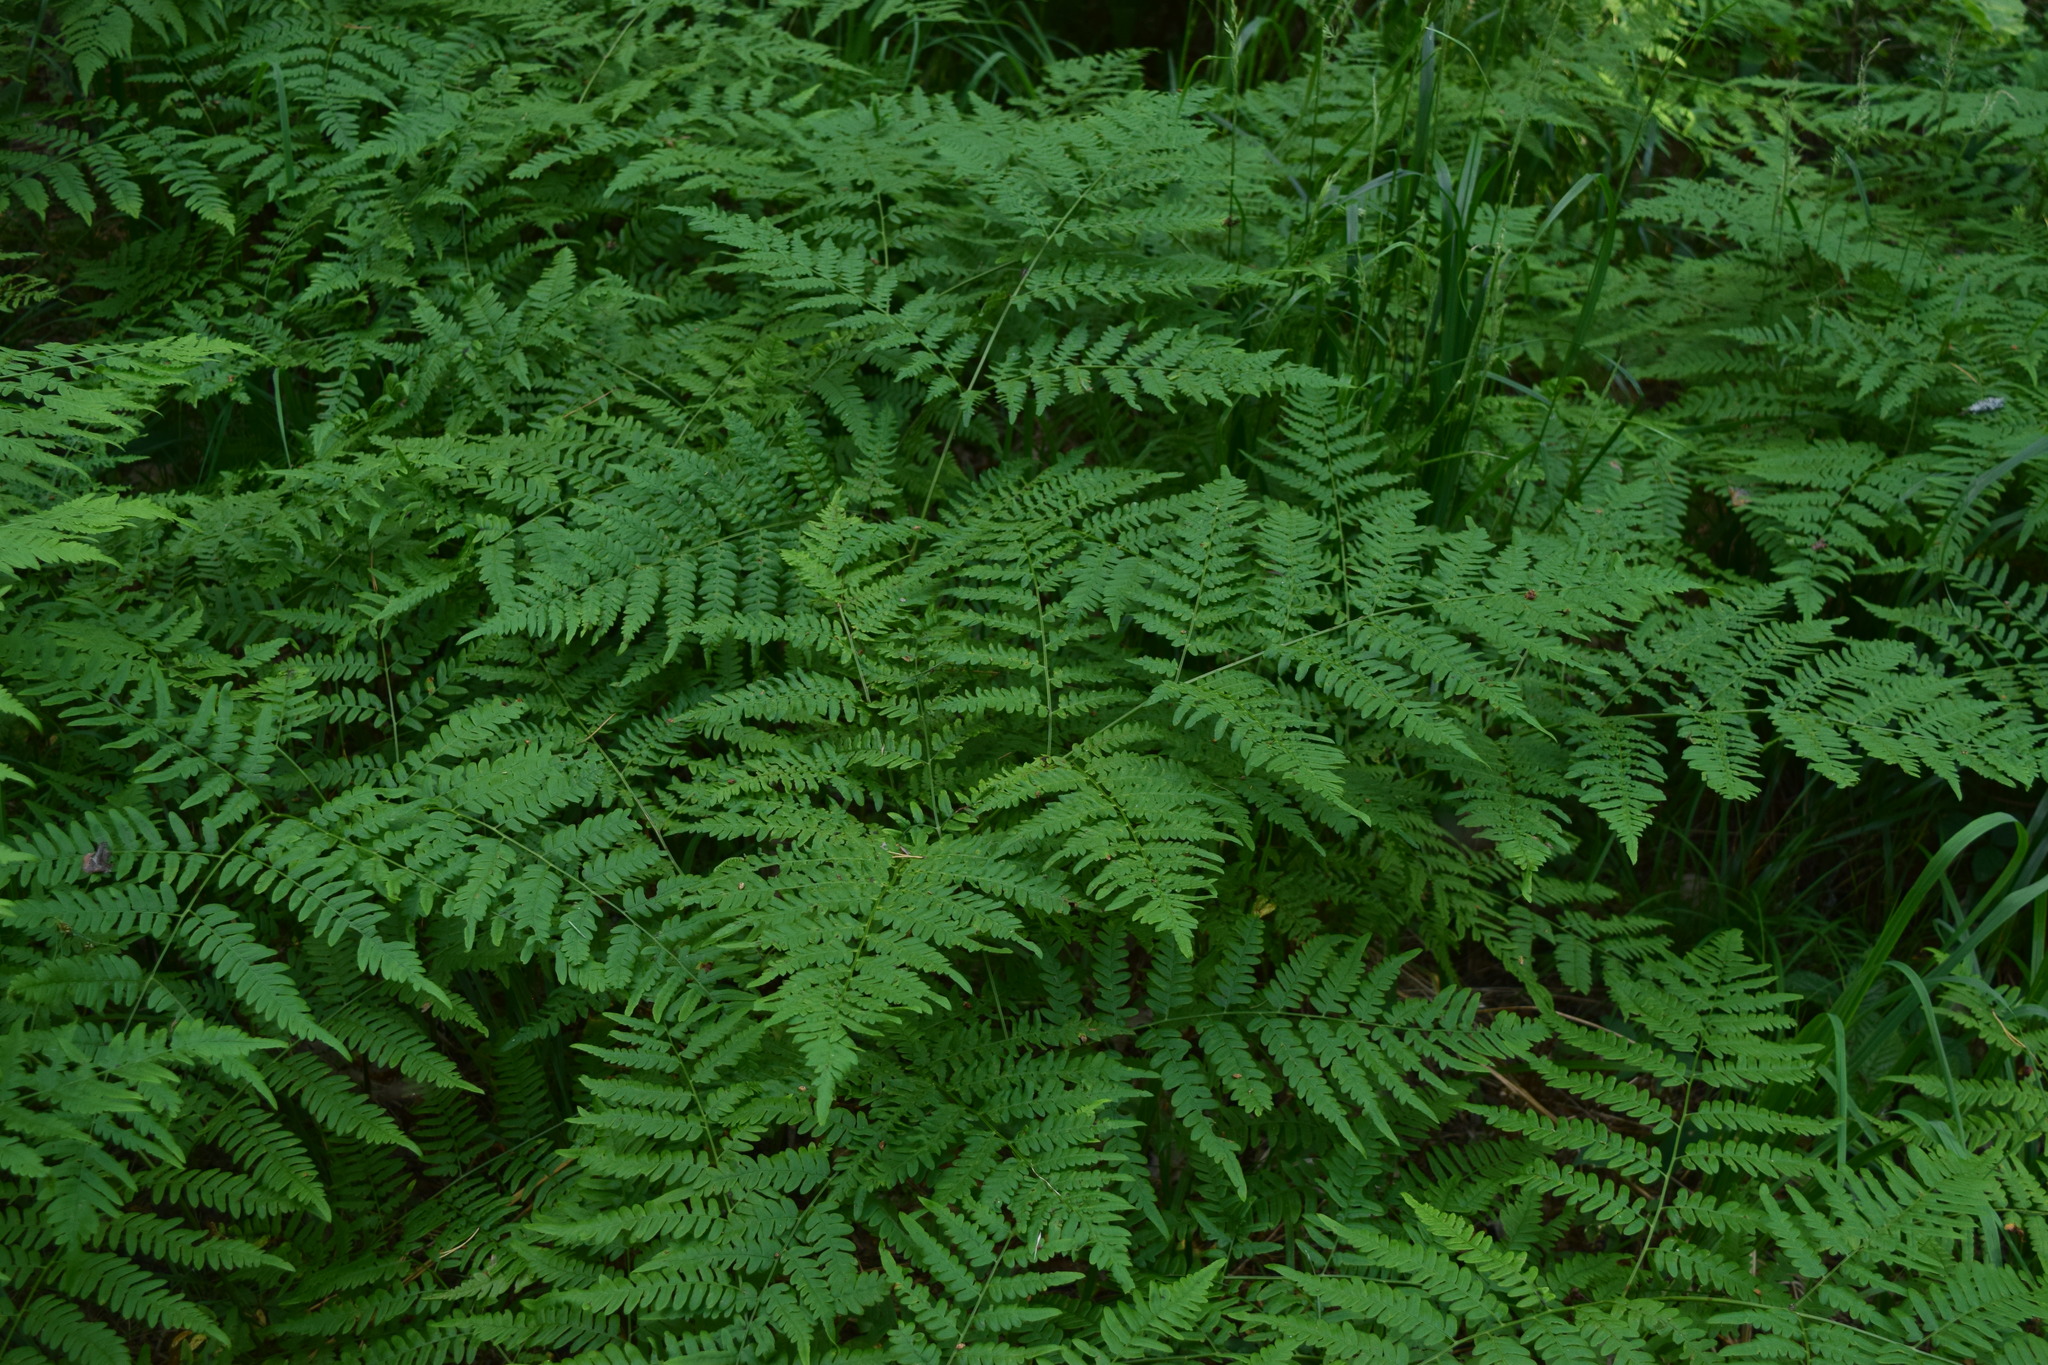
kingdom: Plantae
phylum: Tracheophyta
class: Polypodiopsida
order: Polypodiales
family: Dennstaedtiaceae
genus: Pteridium
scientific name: Pteridium aquilinum
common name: Bracken
